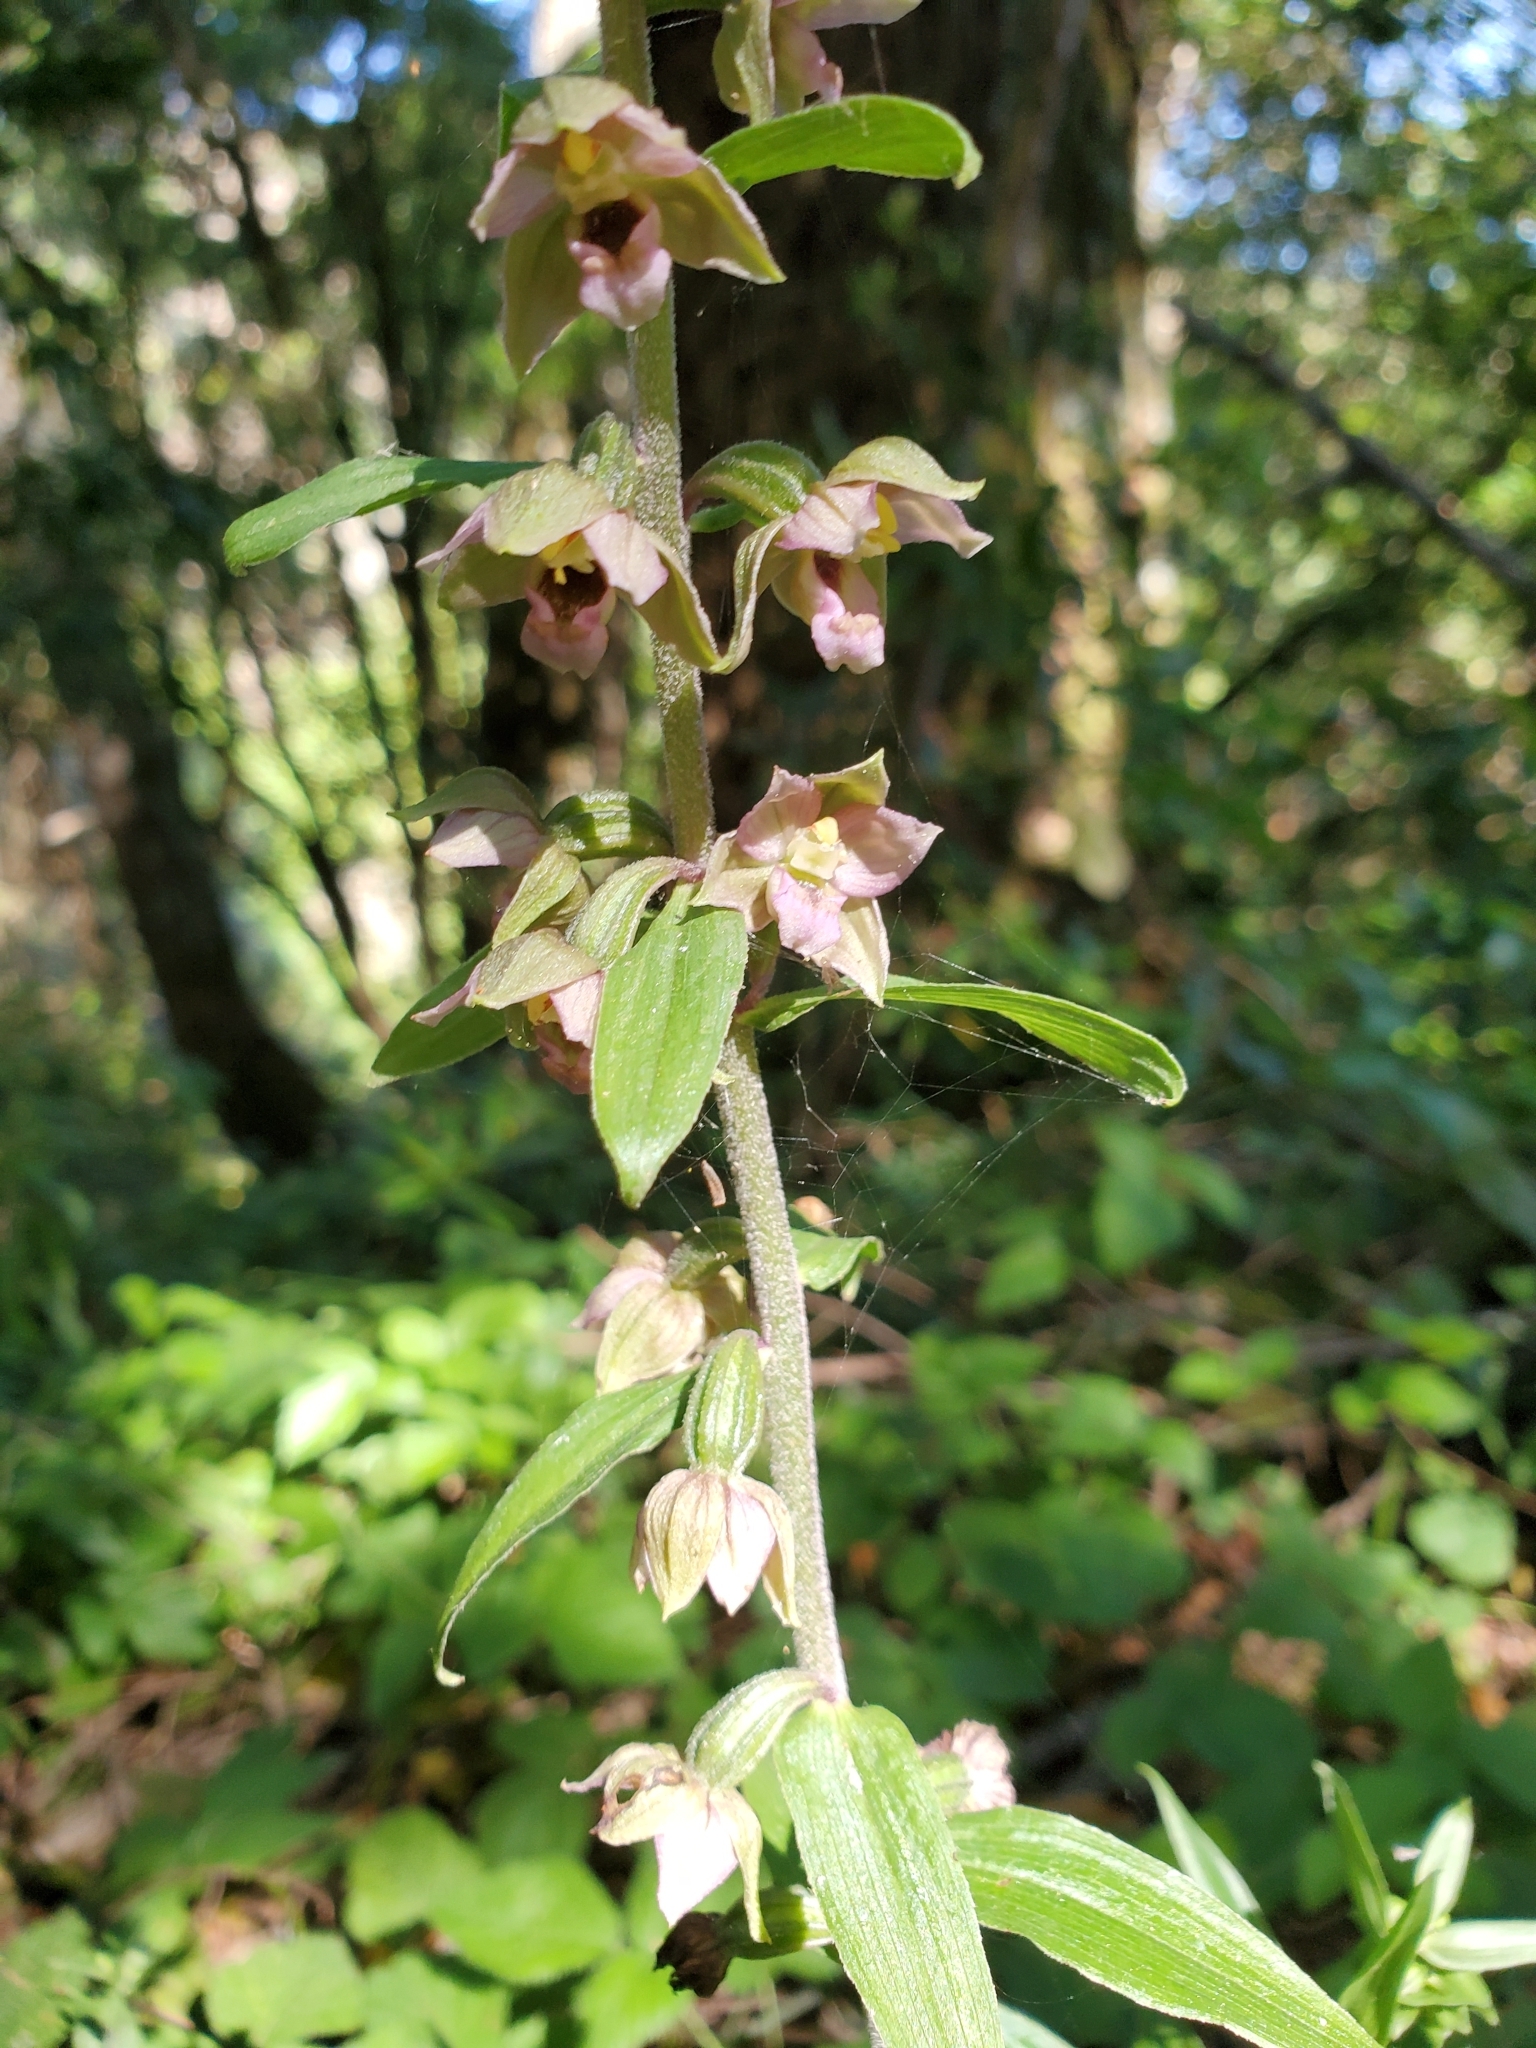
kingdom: Plantae
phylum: Tracheophyta
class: Liliopsida
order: Asparagales
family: Orchidaceae
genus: Epipactis
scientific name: Epipactis helleborine
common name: Broad-leaved helleborine
